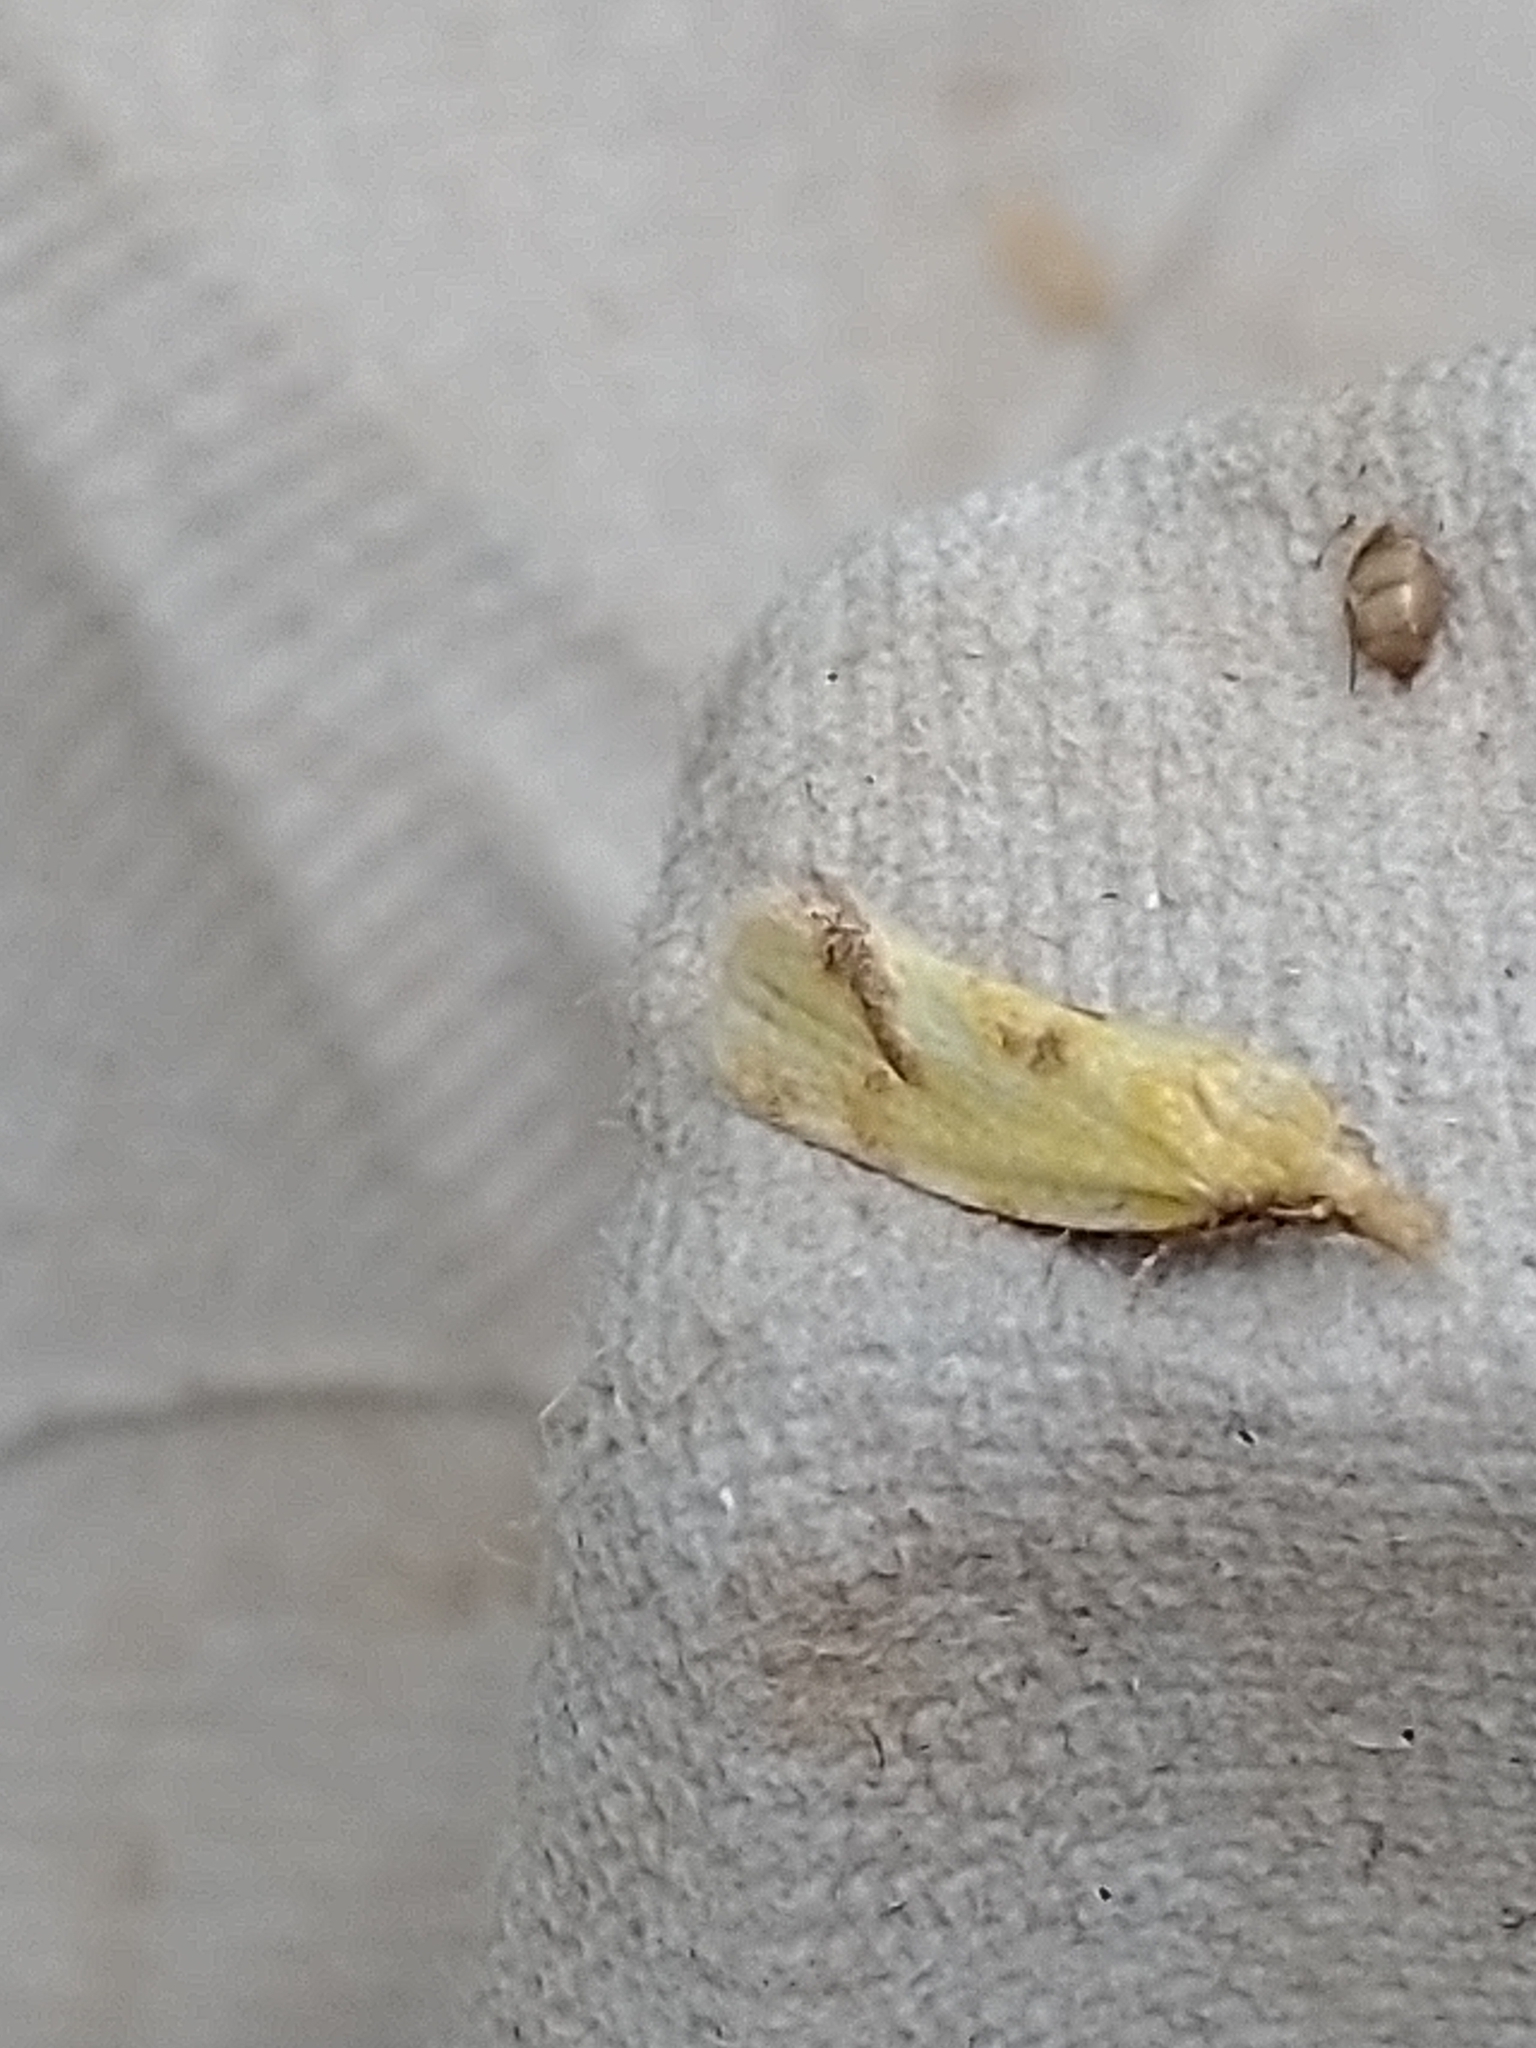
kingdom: Animalia
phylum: Arthropoda
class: Insecta
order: Lepidoptera
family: Tortricidae
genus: Agapeta
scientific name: Agapeta hamana
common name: Common yellow conch
